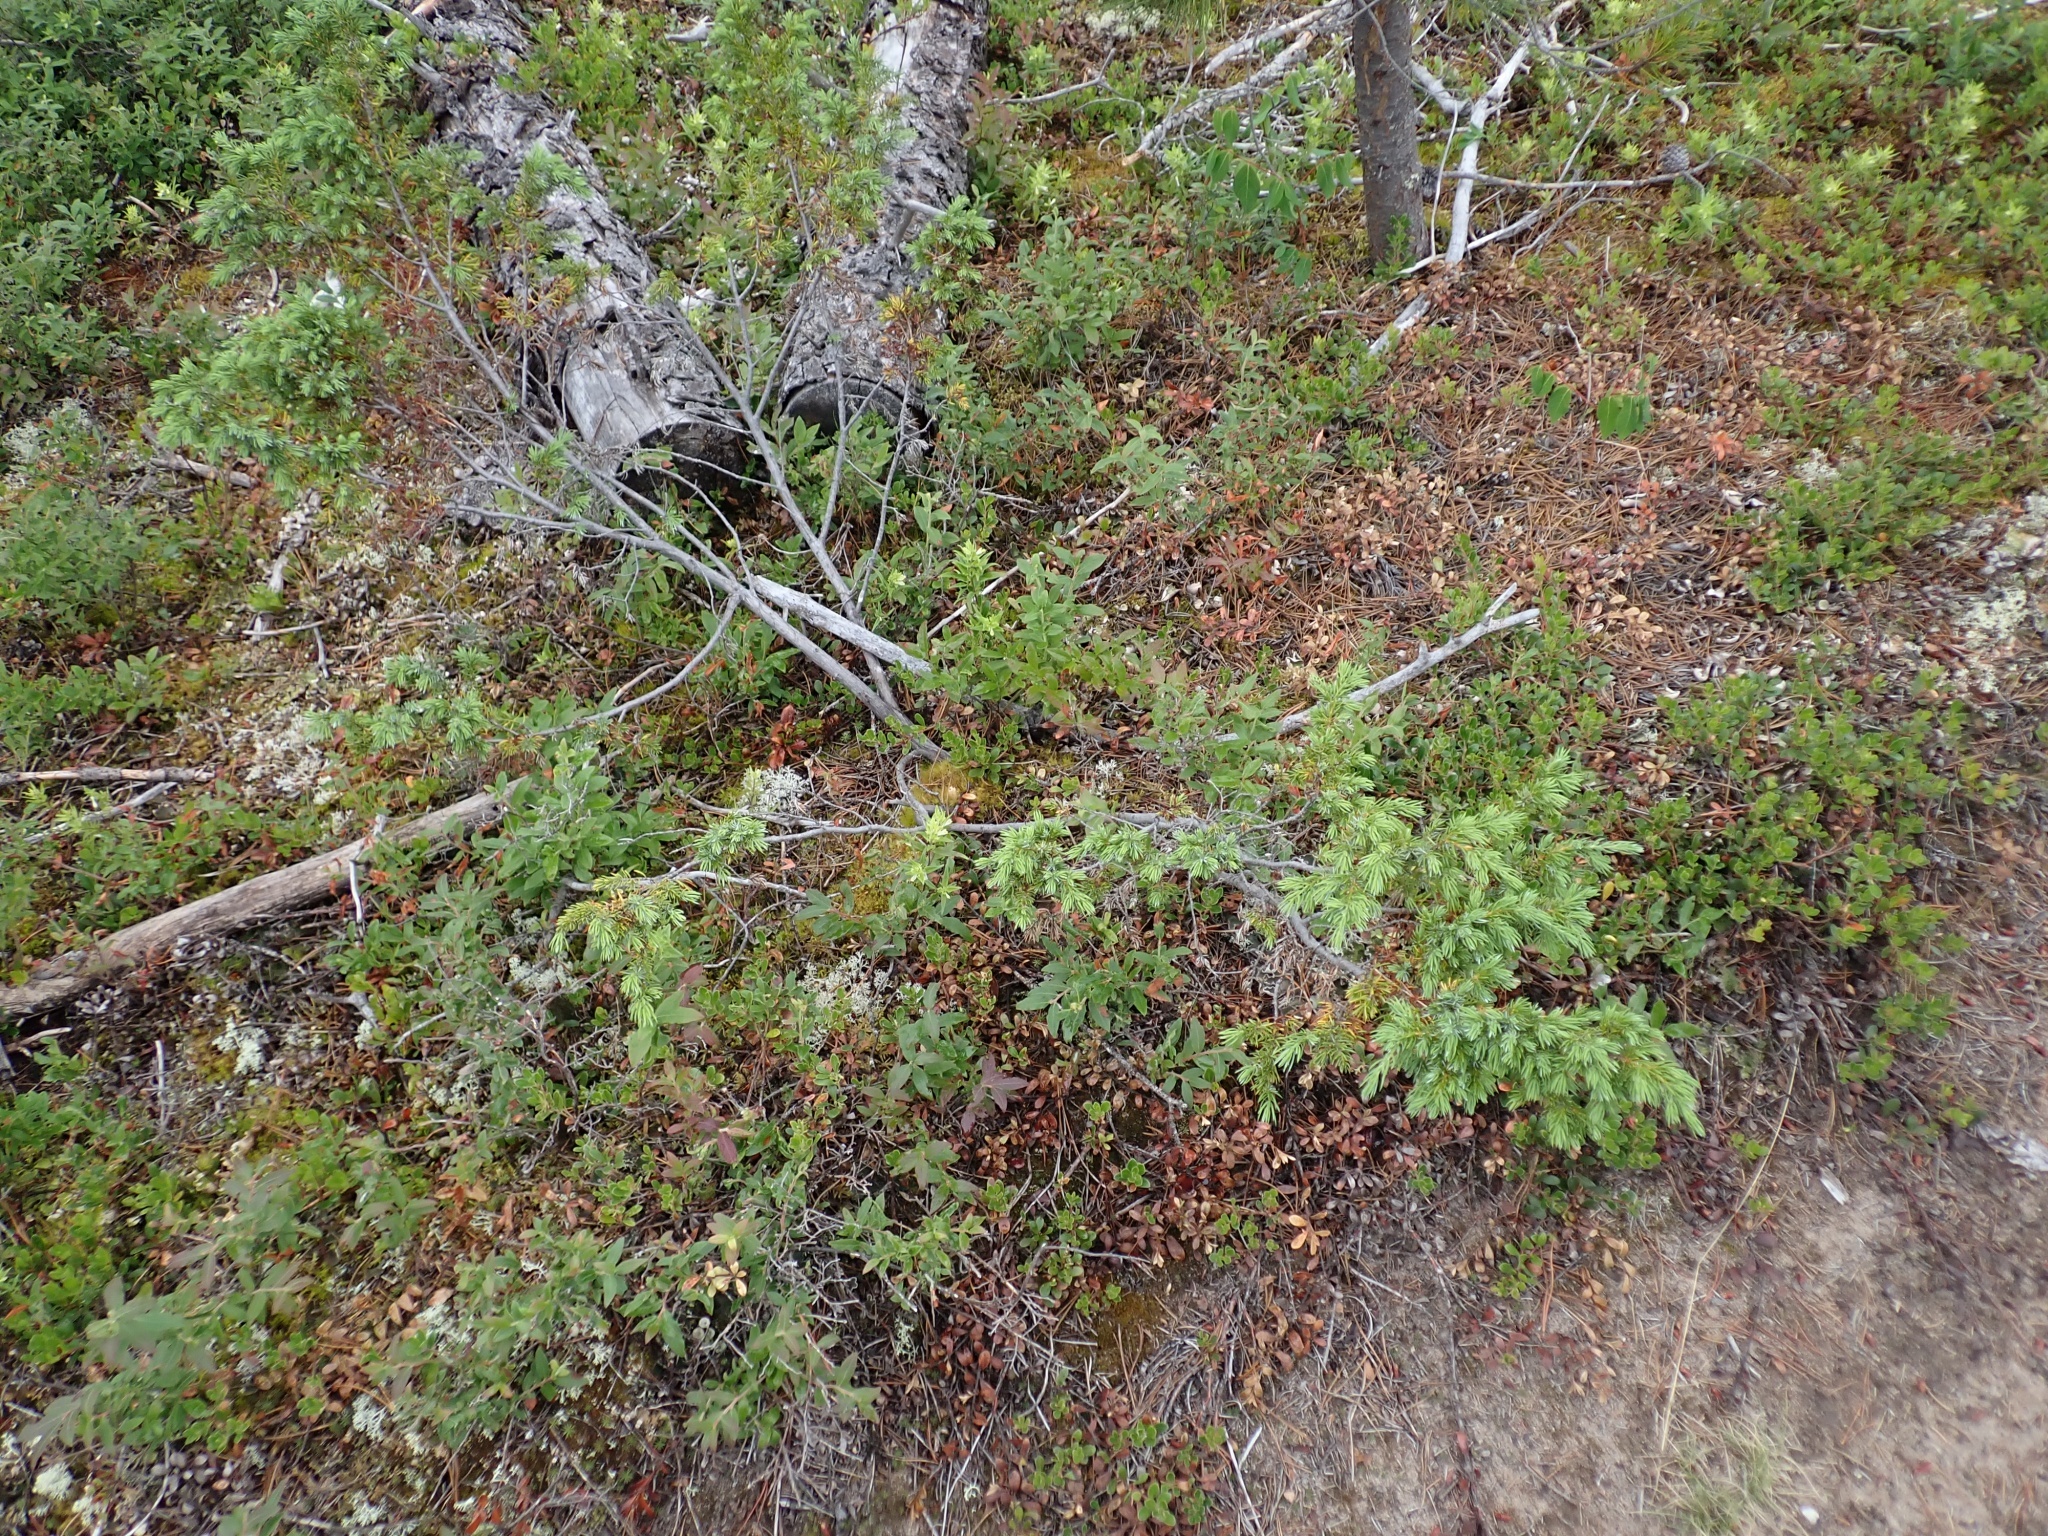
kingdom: Plantae
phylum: Tracheophyta
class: Pinopsida
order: Pinales
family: Cupressaceae
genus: Juniperus
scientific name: Juniperus communis
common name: Common juniper
